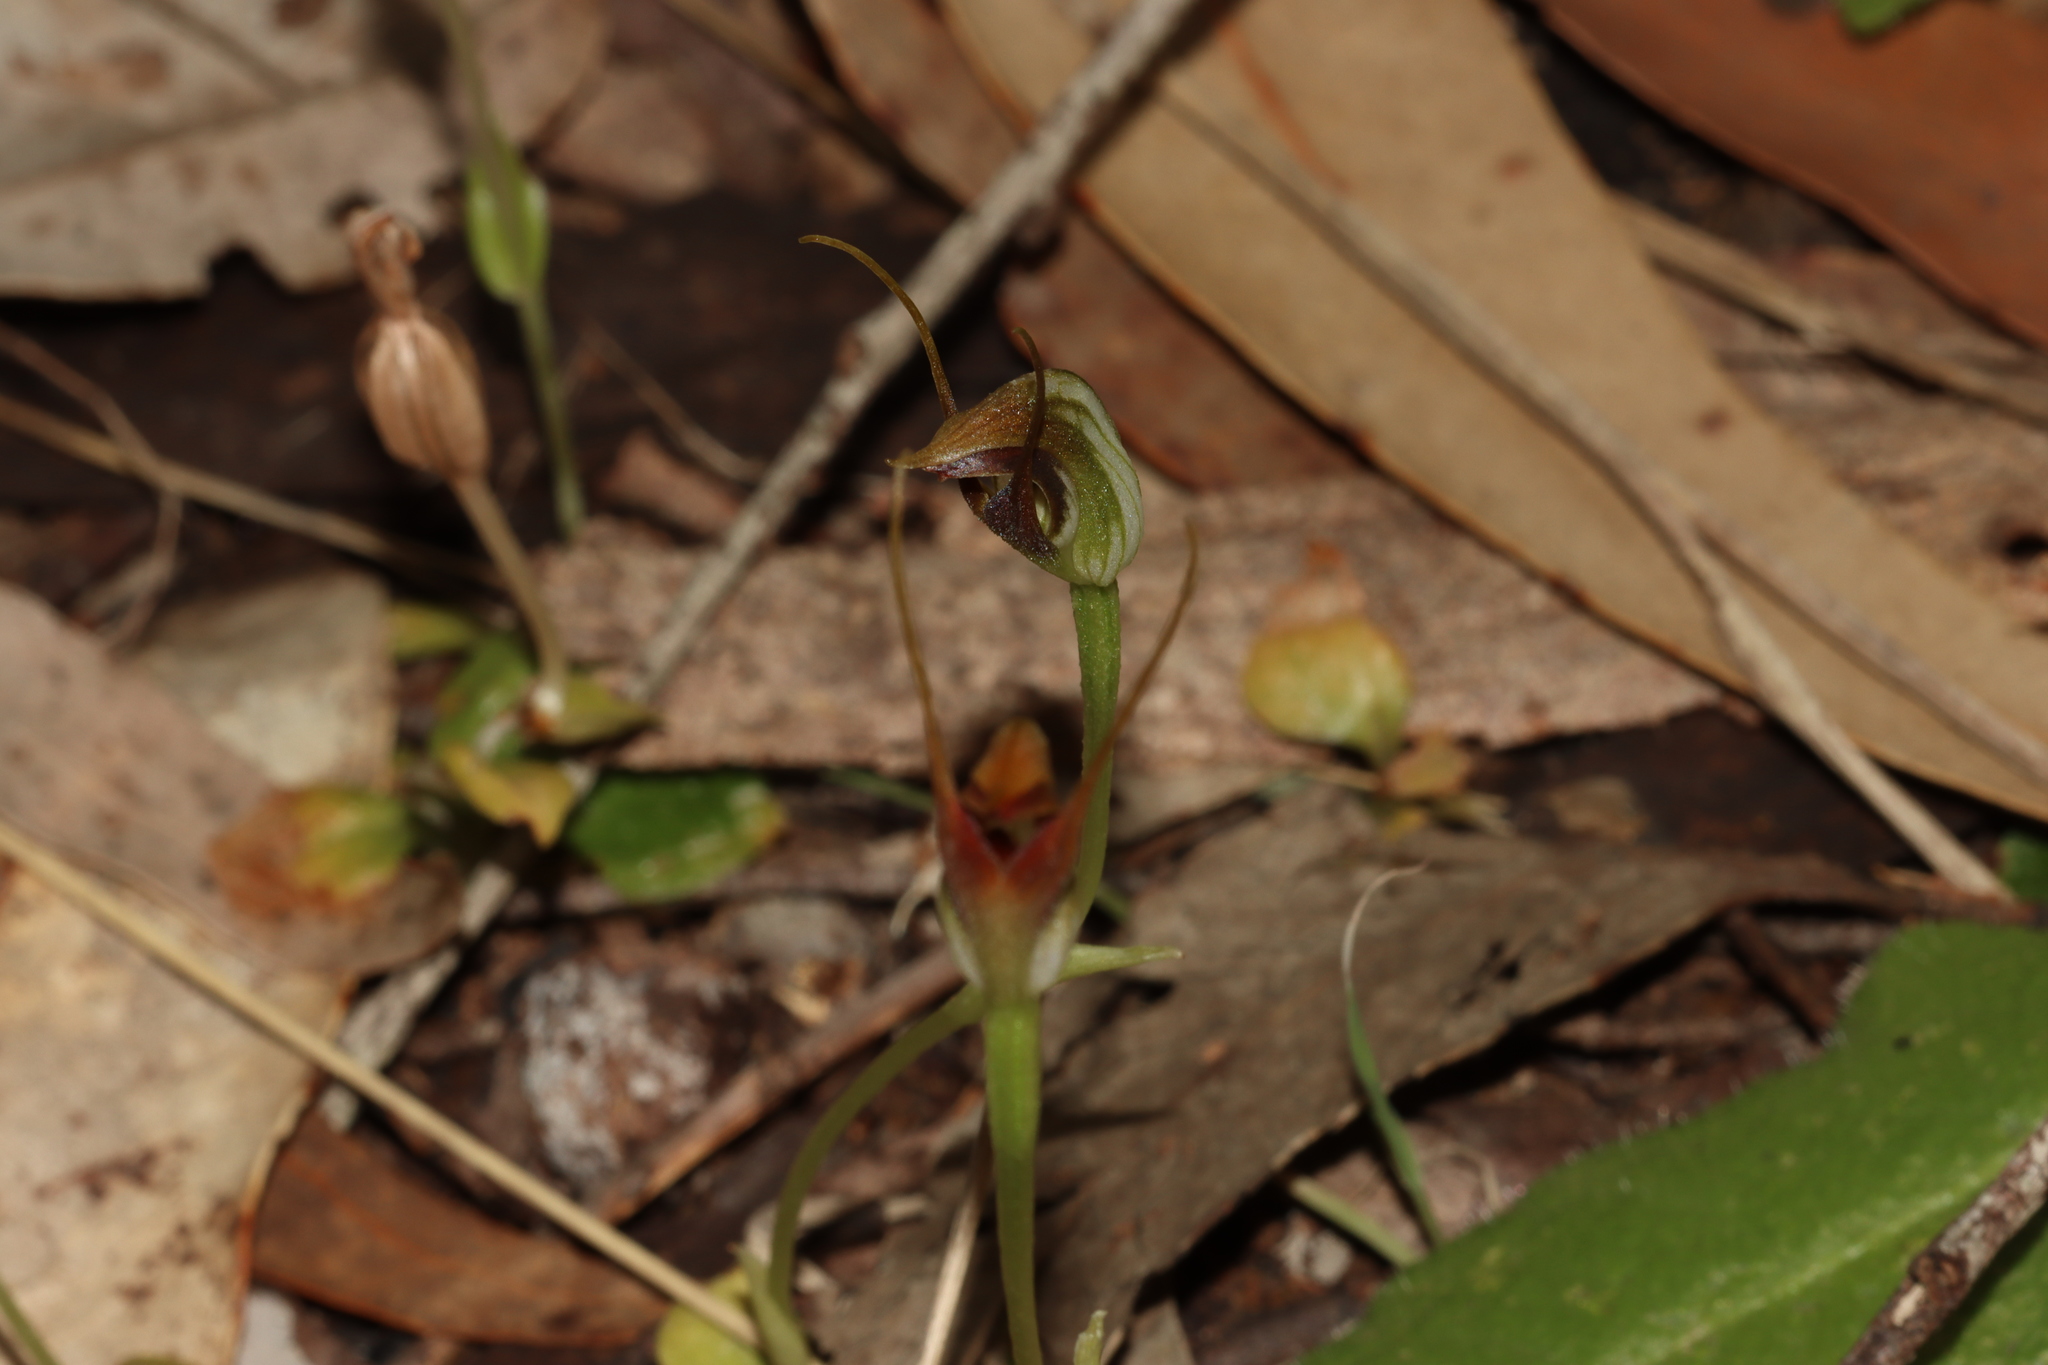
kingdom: Plantae
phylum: Tracheophyta
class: Liliopsida
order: Asparagales
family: Orchidaceae
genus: Pterostylis
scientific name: Pterostylis pedunculata
